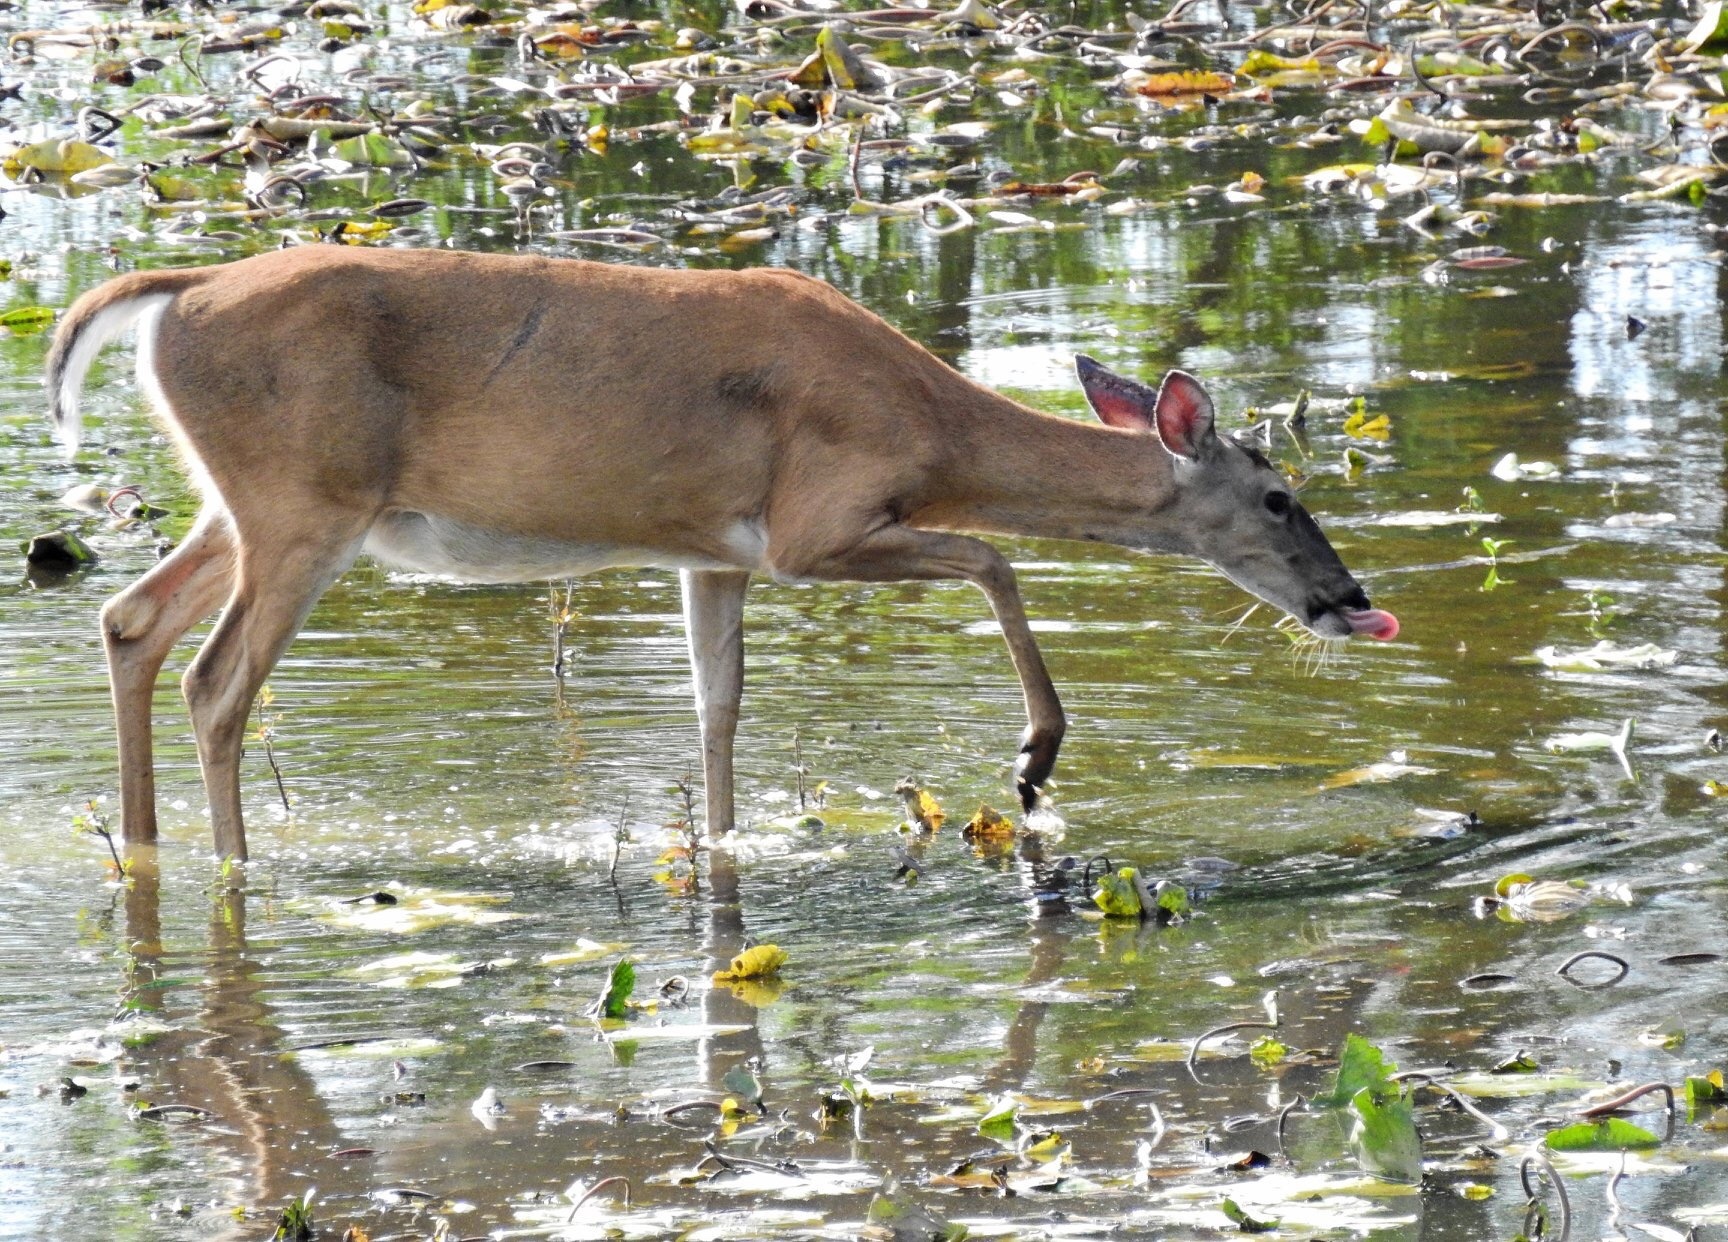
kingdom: Animalia
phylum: Chordata
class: Mammalia
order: Artiodactyla
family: Cervidae
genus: Odocoileus
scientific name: Odocoileus virginianus
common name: White-tailed deer
